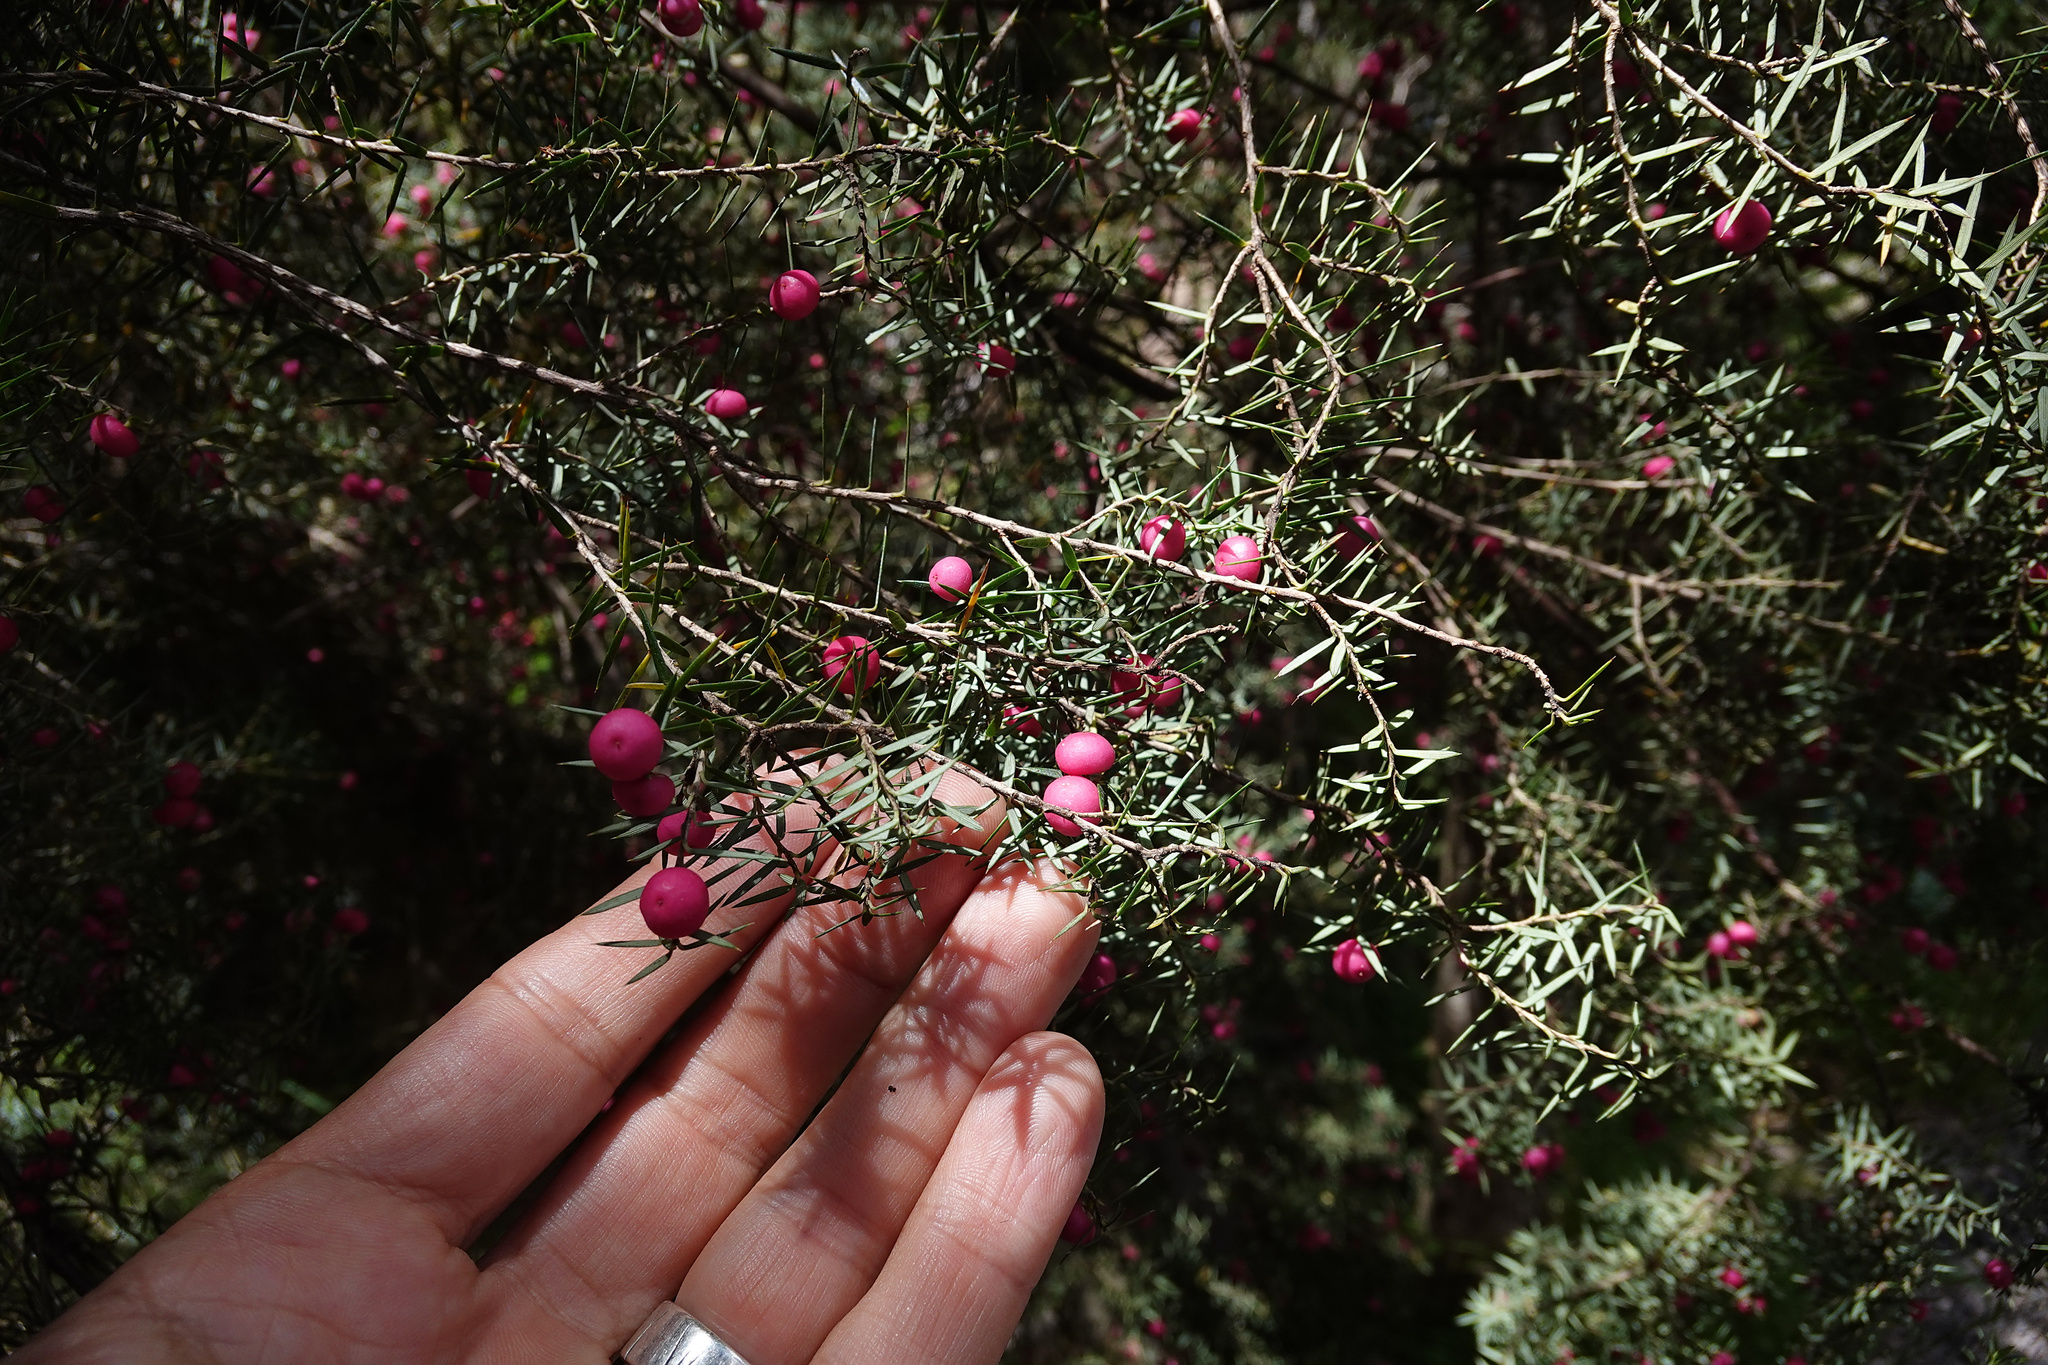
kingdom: Plantae
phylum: Tracheophyta
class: Magnoliopsida
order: Ericales
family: Ericaceae
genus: Leptecophylla
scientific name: Leptecophylla oxycedrus
